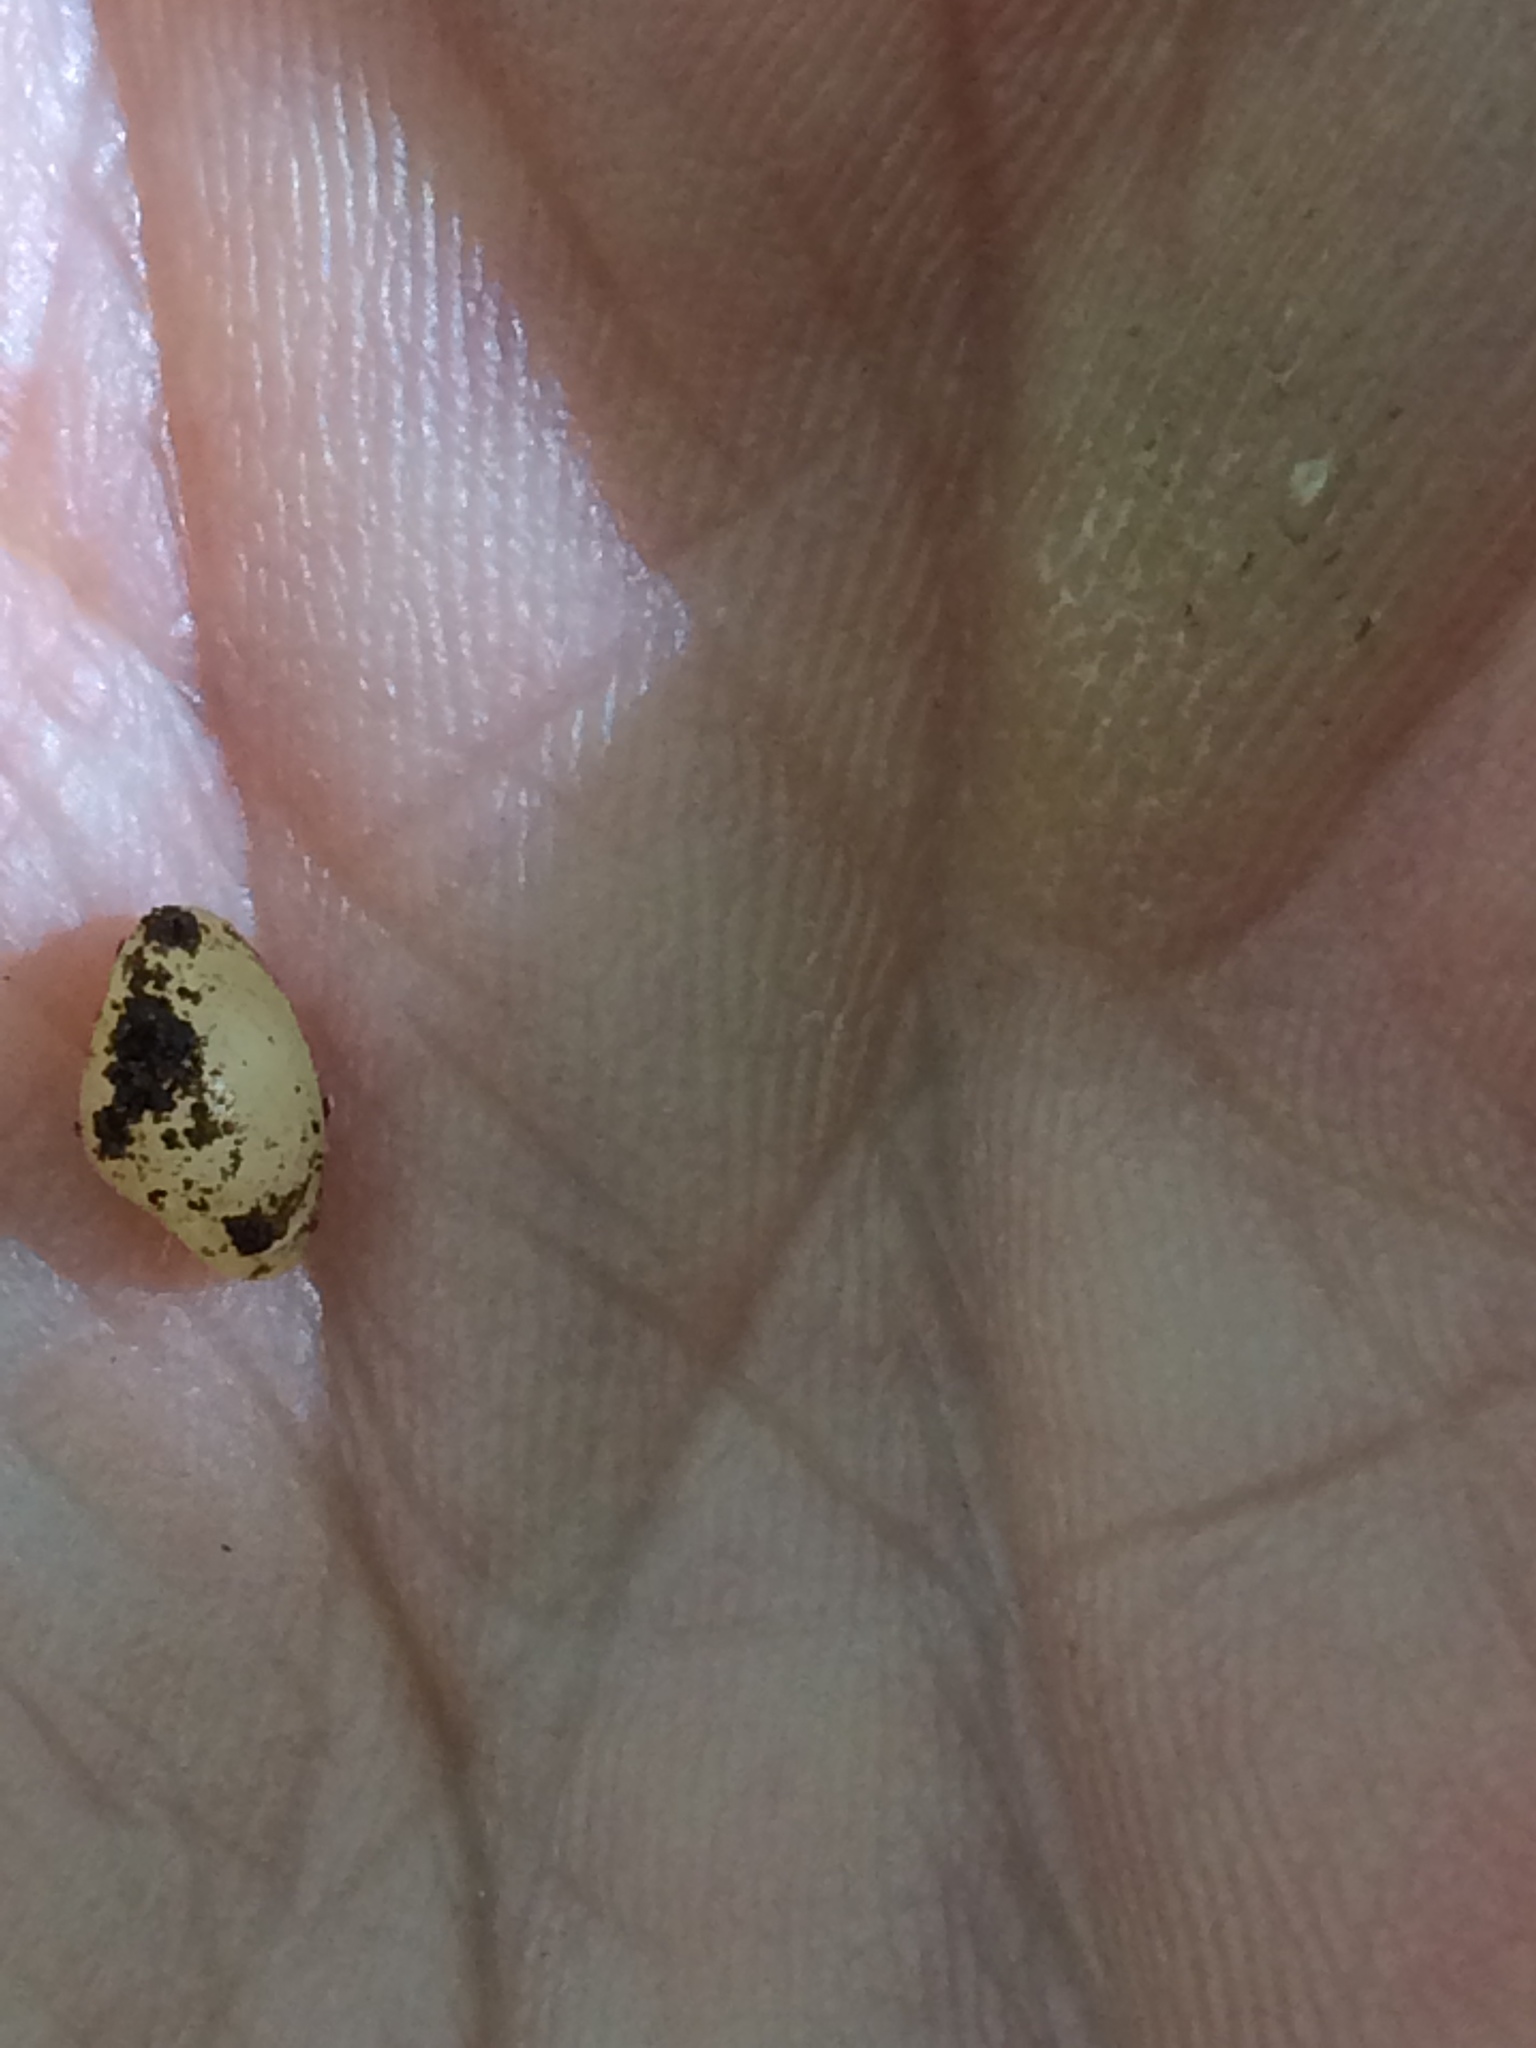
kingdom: Animalia
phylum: Mollusca
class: Bivalvia
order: Sphaeriida
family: Sphaeriidae
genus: Sphaerium
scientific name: Sphaerium
